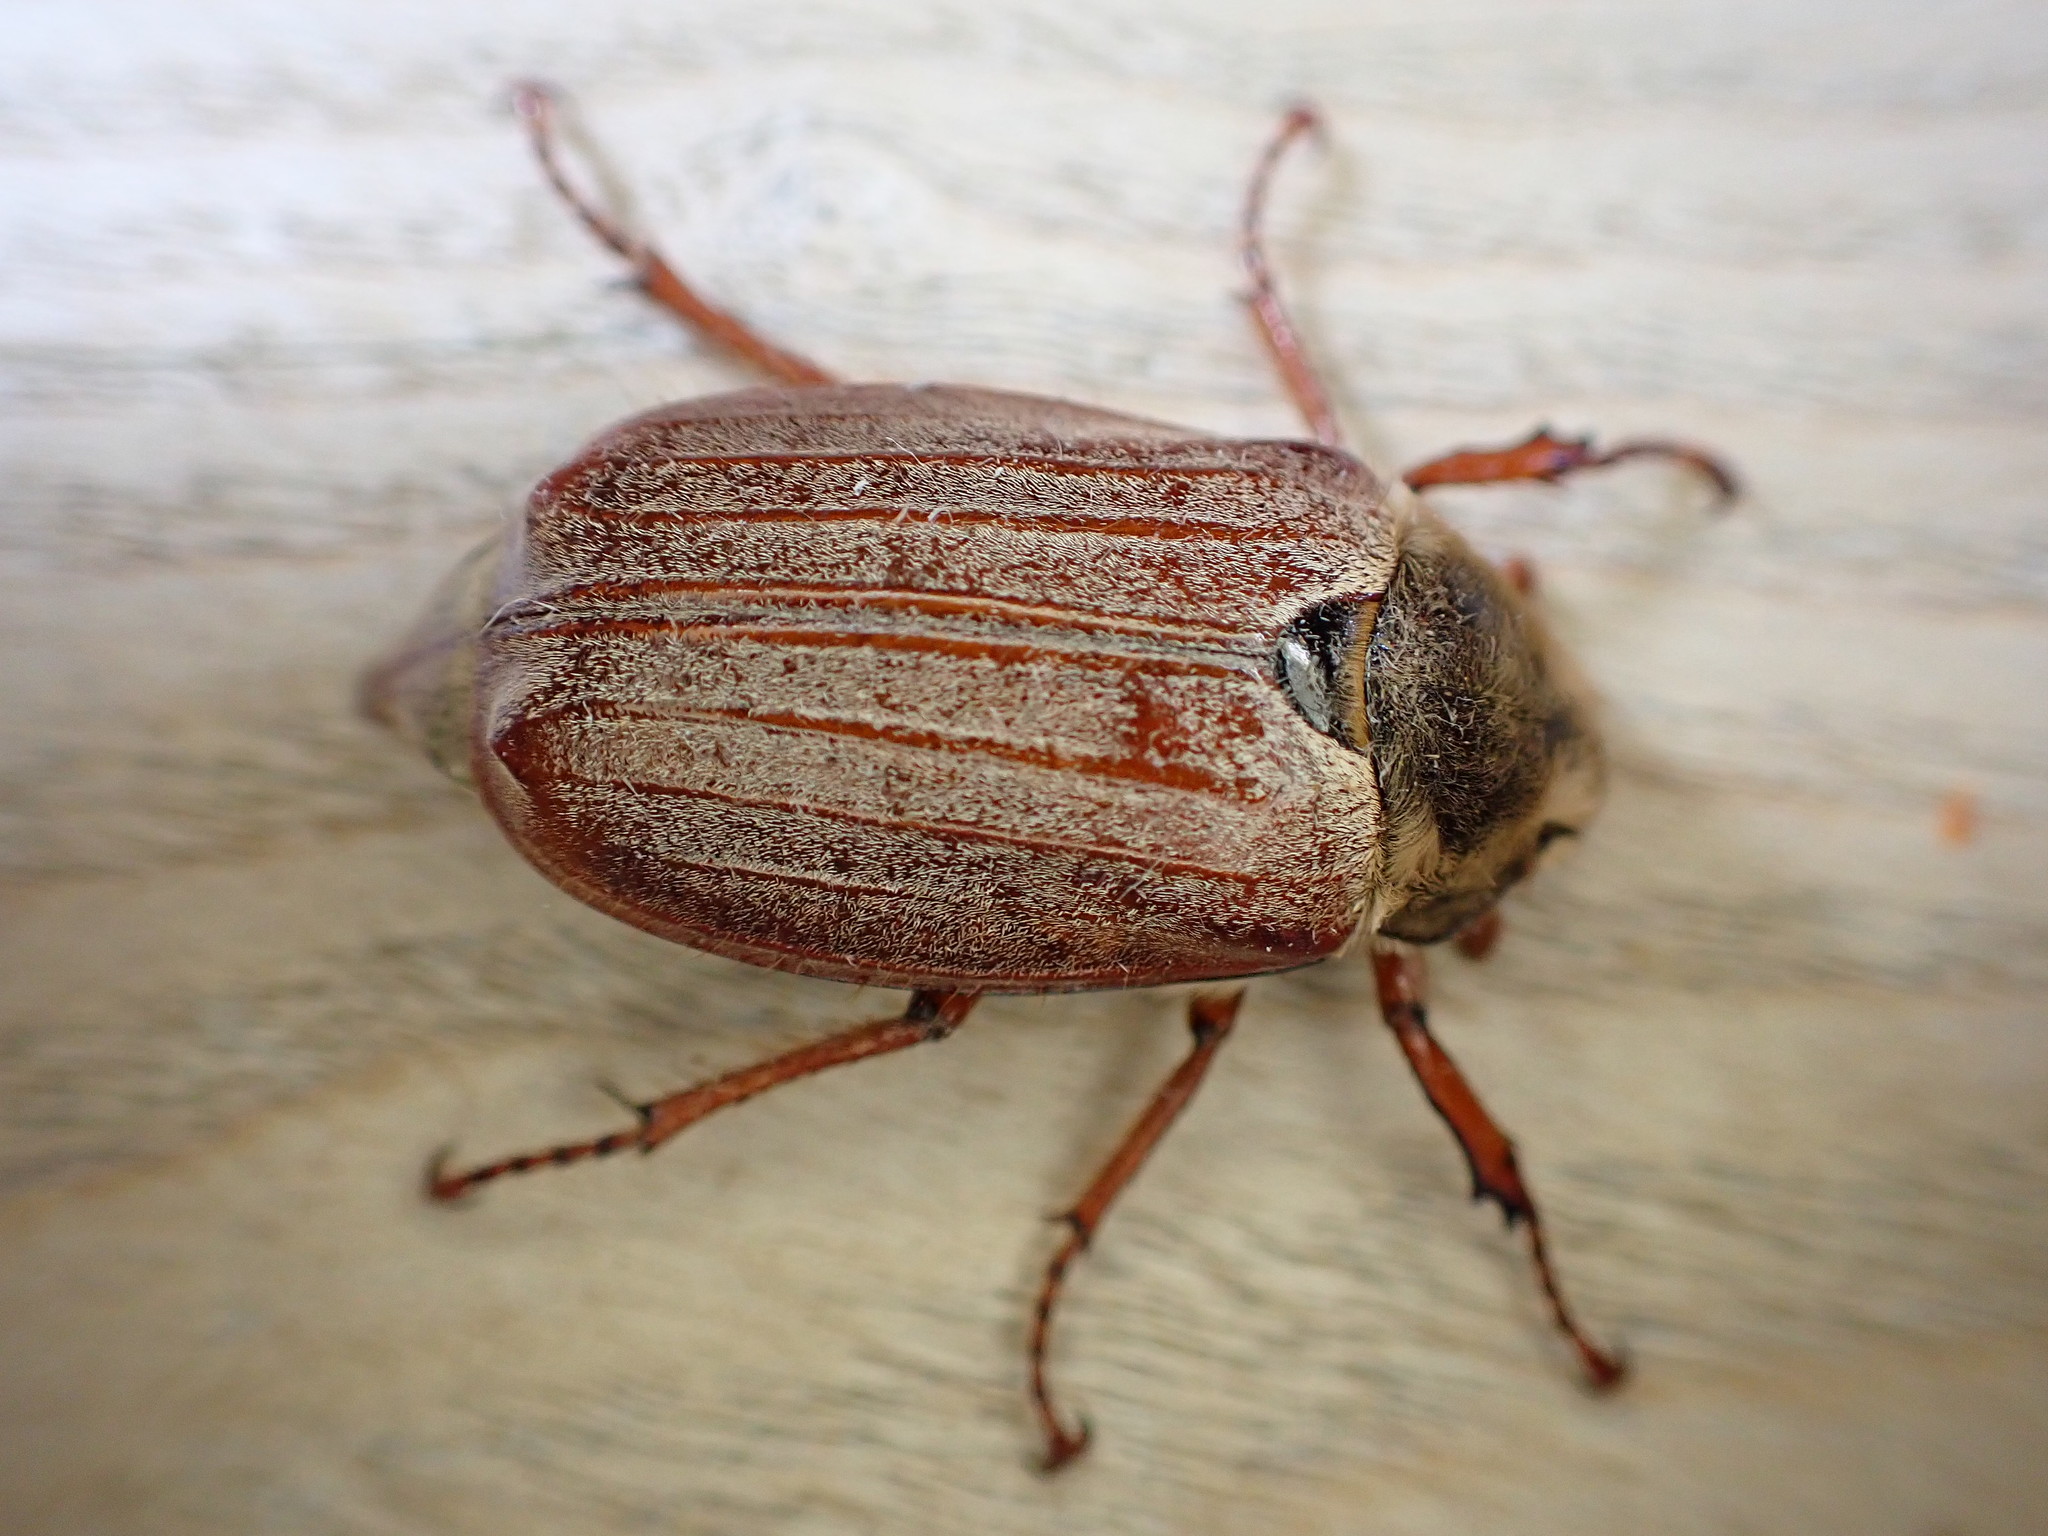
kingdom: Animalia
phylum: Arthropoda
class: Insecta
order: Coleoptera
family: Scarabaeidae
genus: Melolontha
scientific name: Melolontha melolontha
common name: Cockchafer maybeetle
